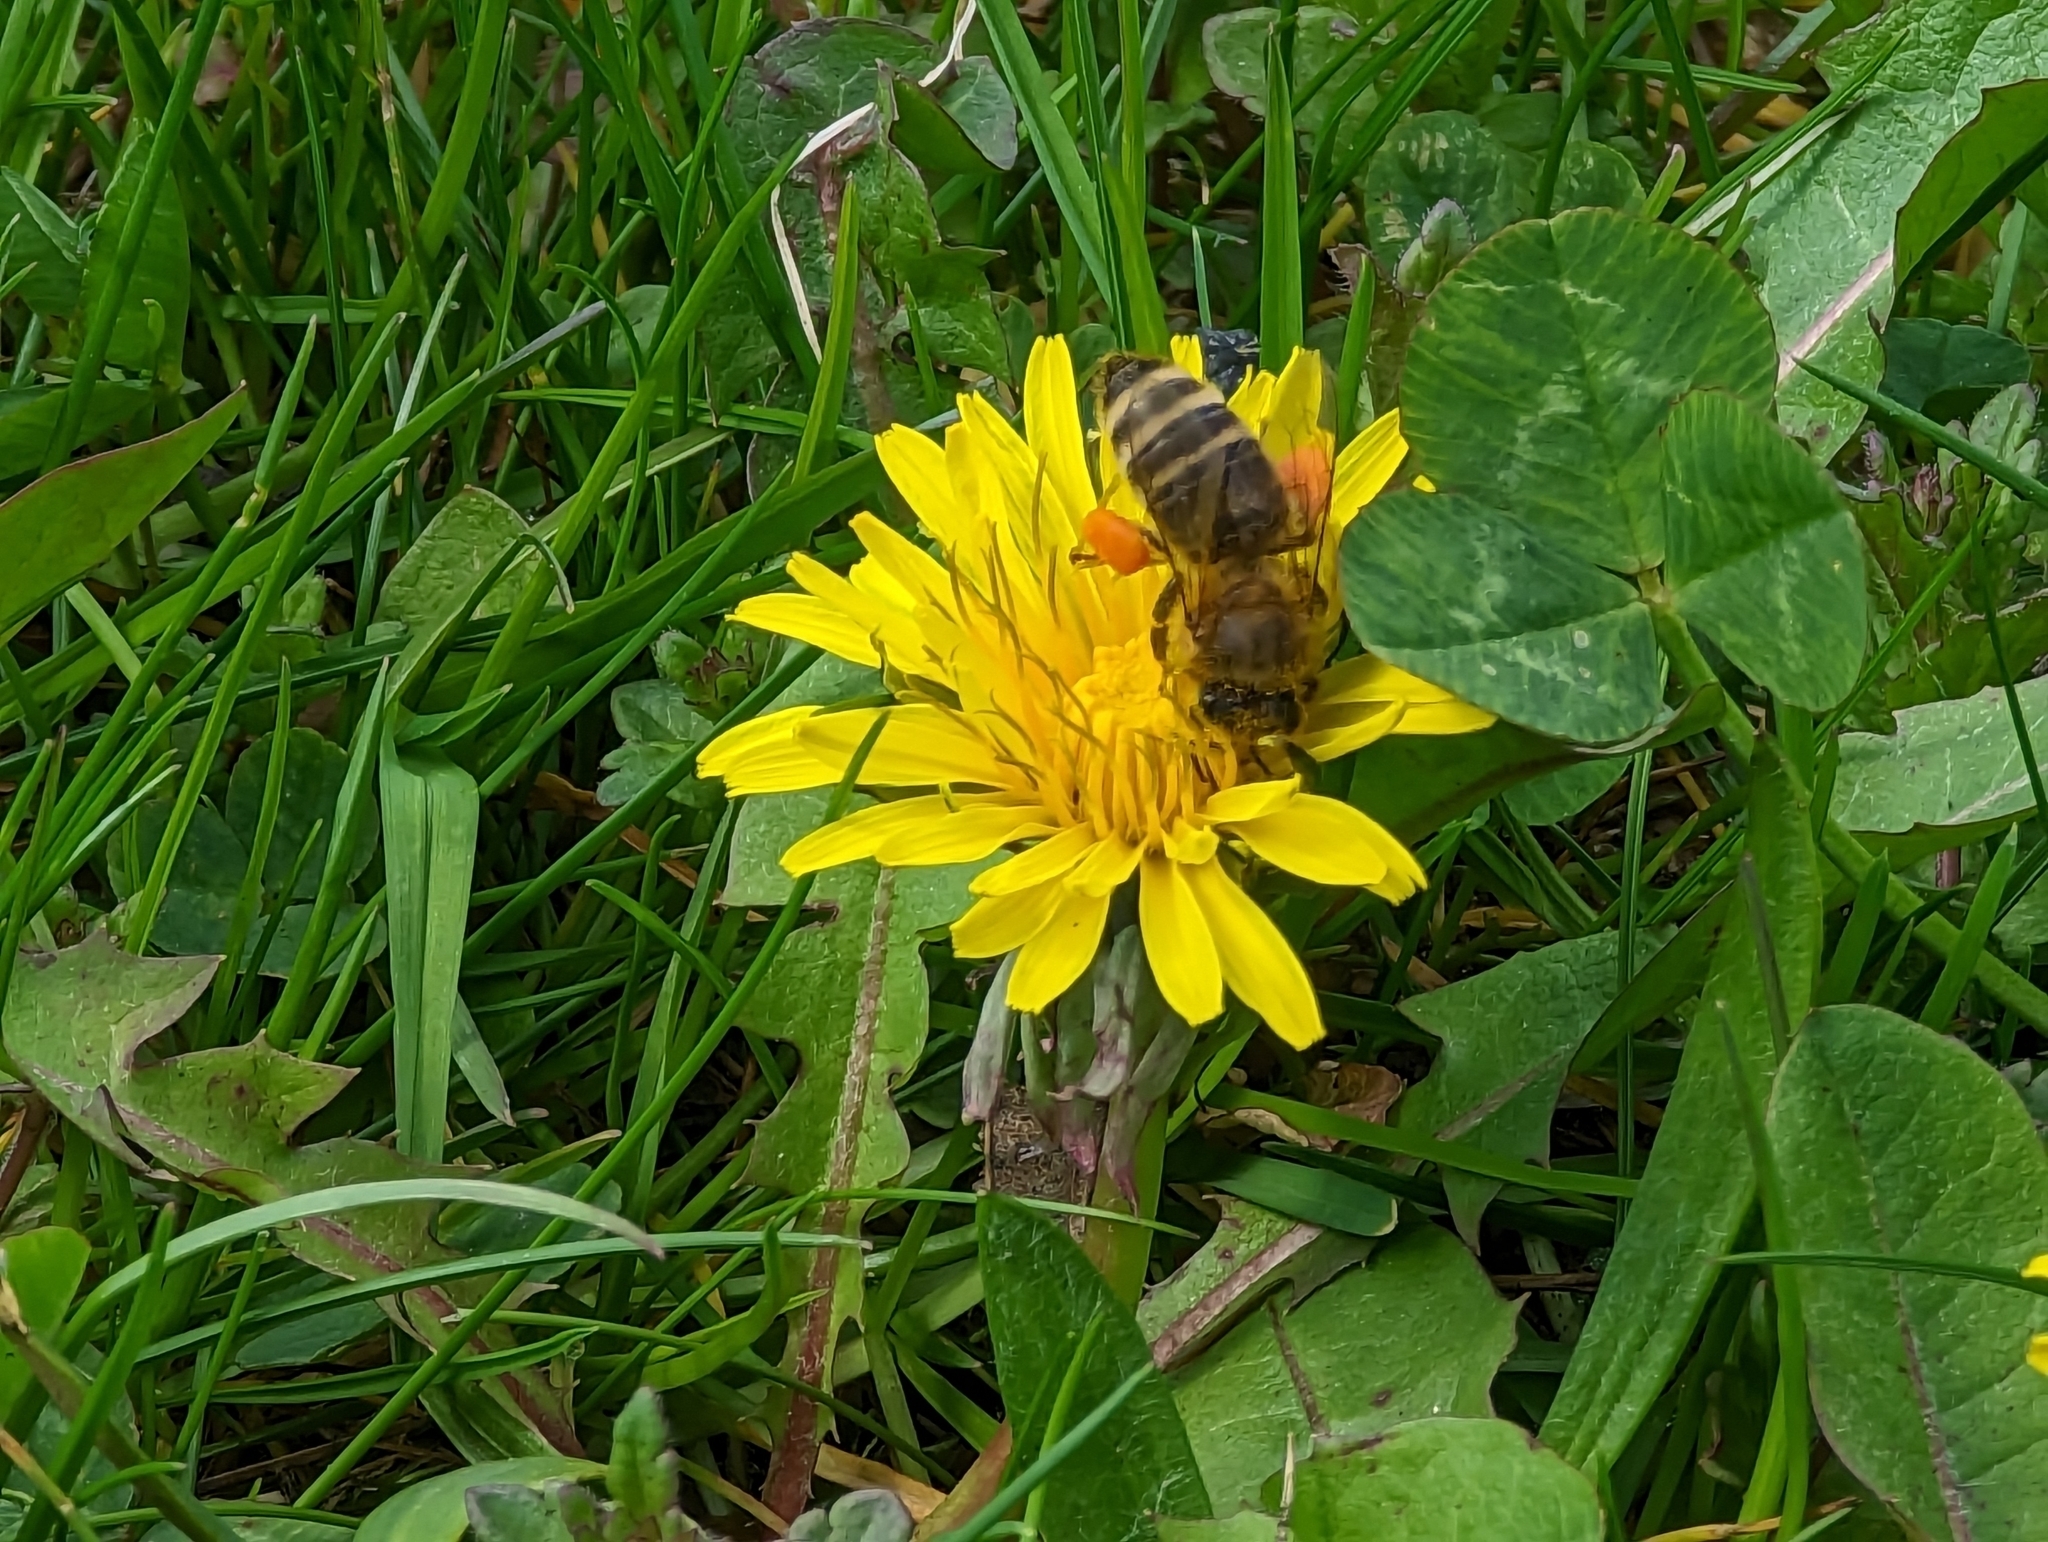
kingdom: Animalia
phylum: Arthropoda
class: Insecta
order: Hymenoptera
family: Apidae
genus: Apis
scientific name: Apis mellifera
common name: Honey bee
